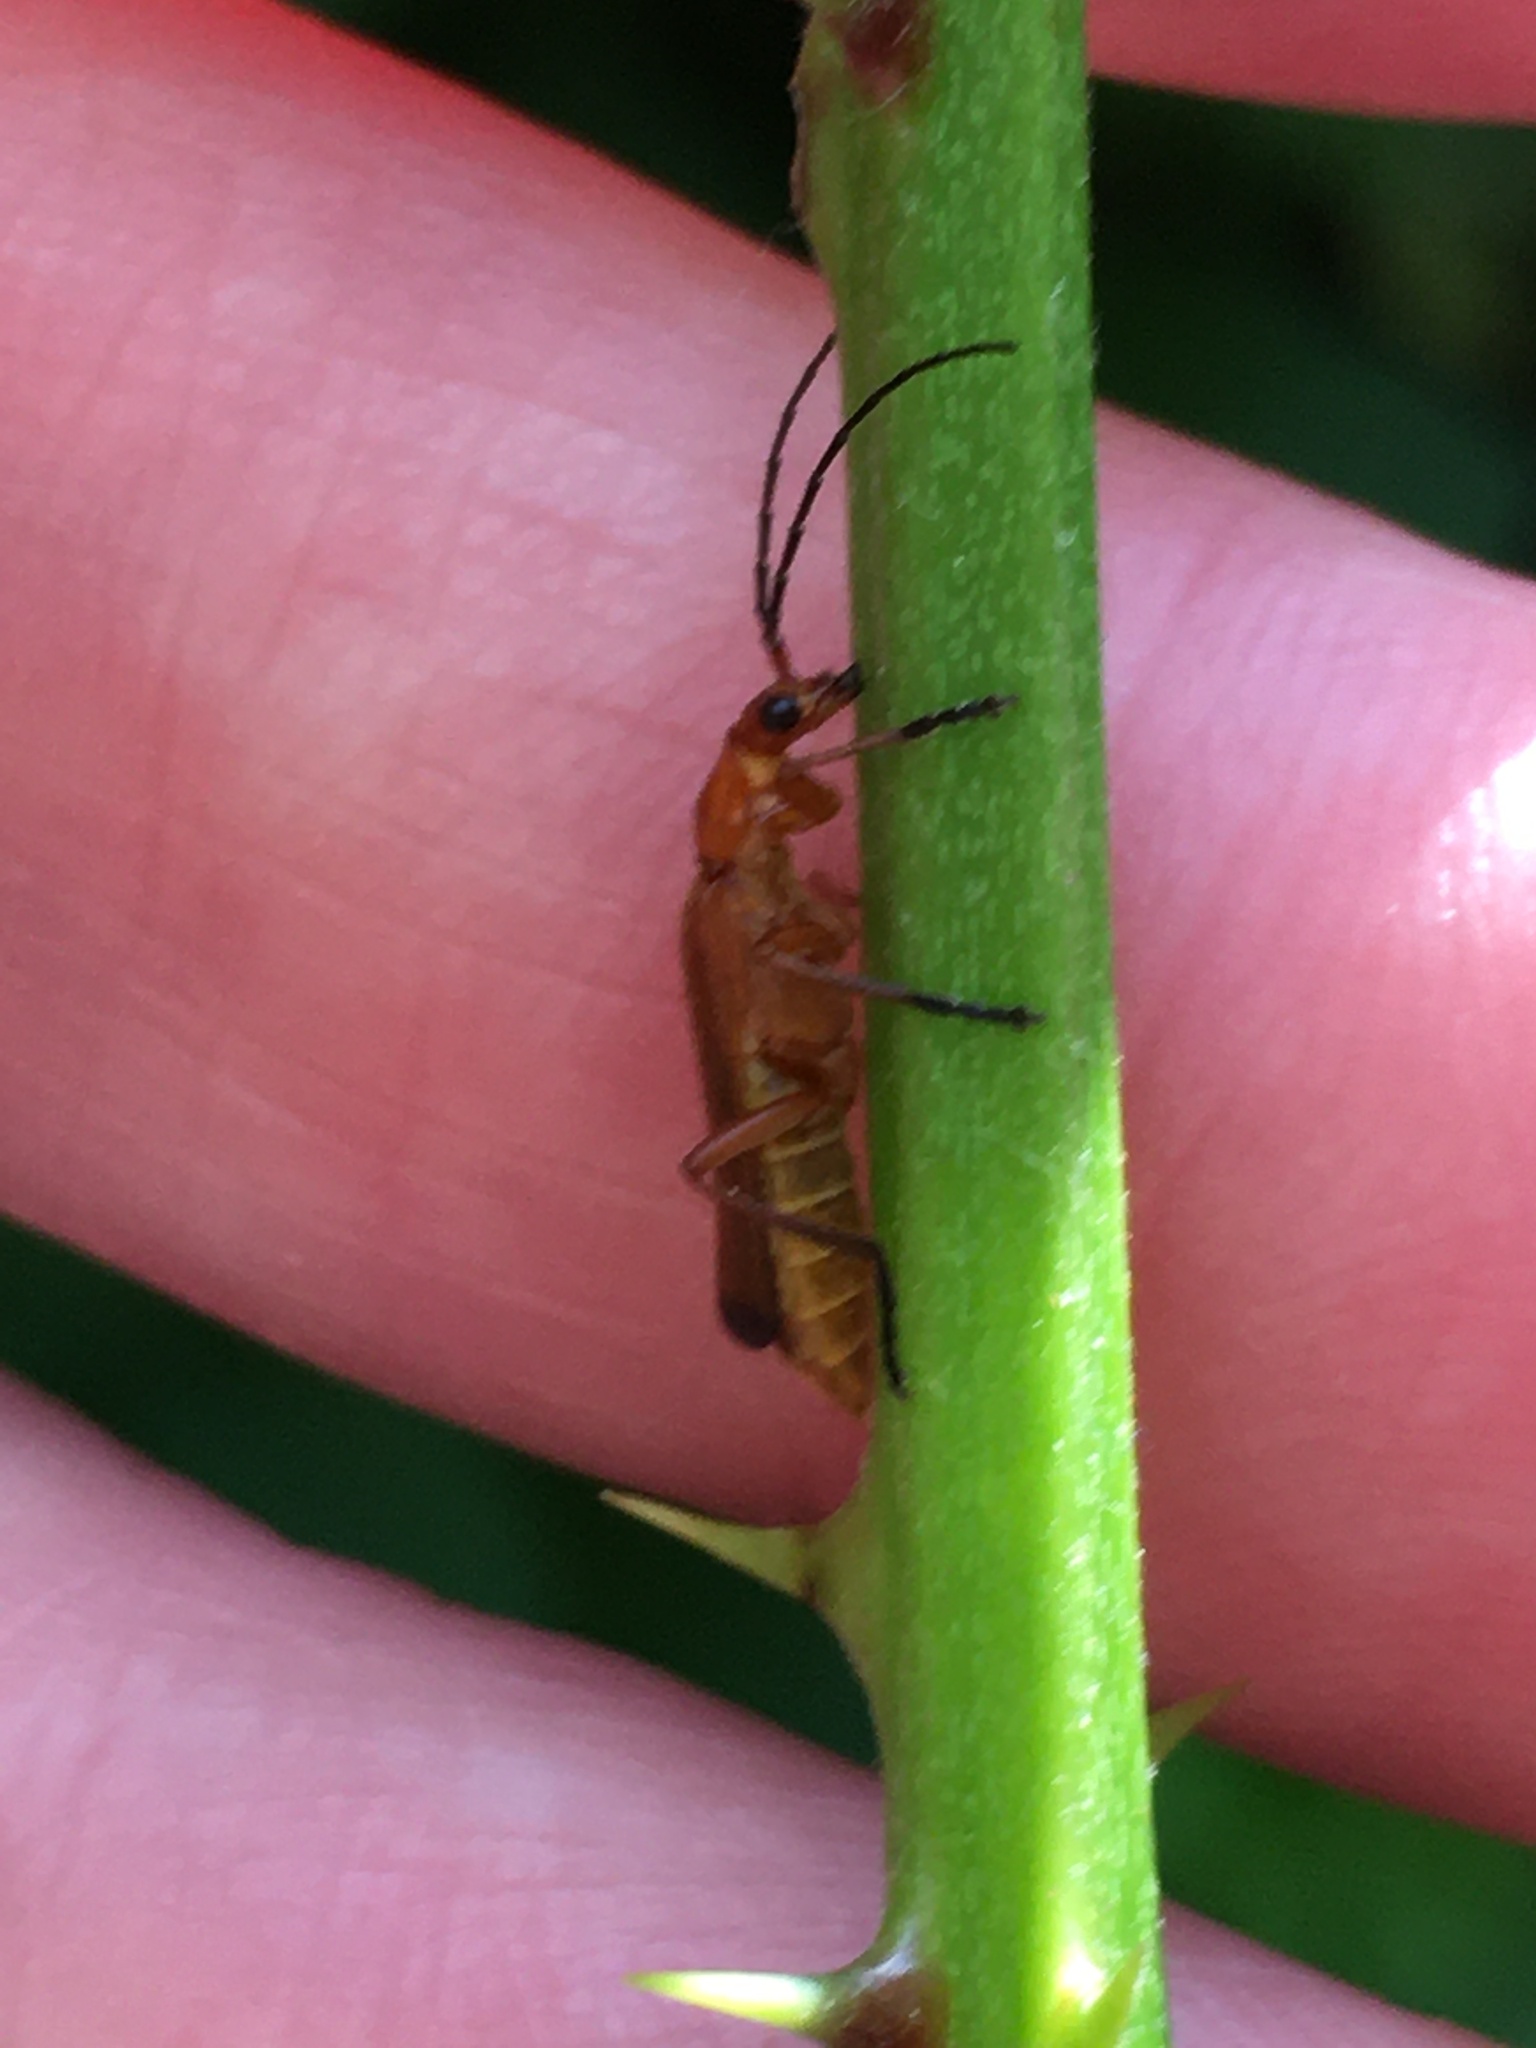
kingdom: Animalia
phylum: Arthropoda
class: Insecta
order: Coleoptera
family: Cantharidae
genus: Rhagonycha
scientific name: Rhagonycha fulva
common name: Common red soldier beetle
